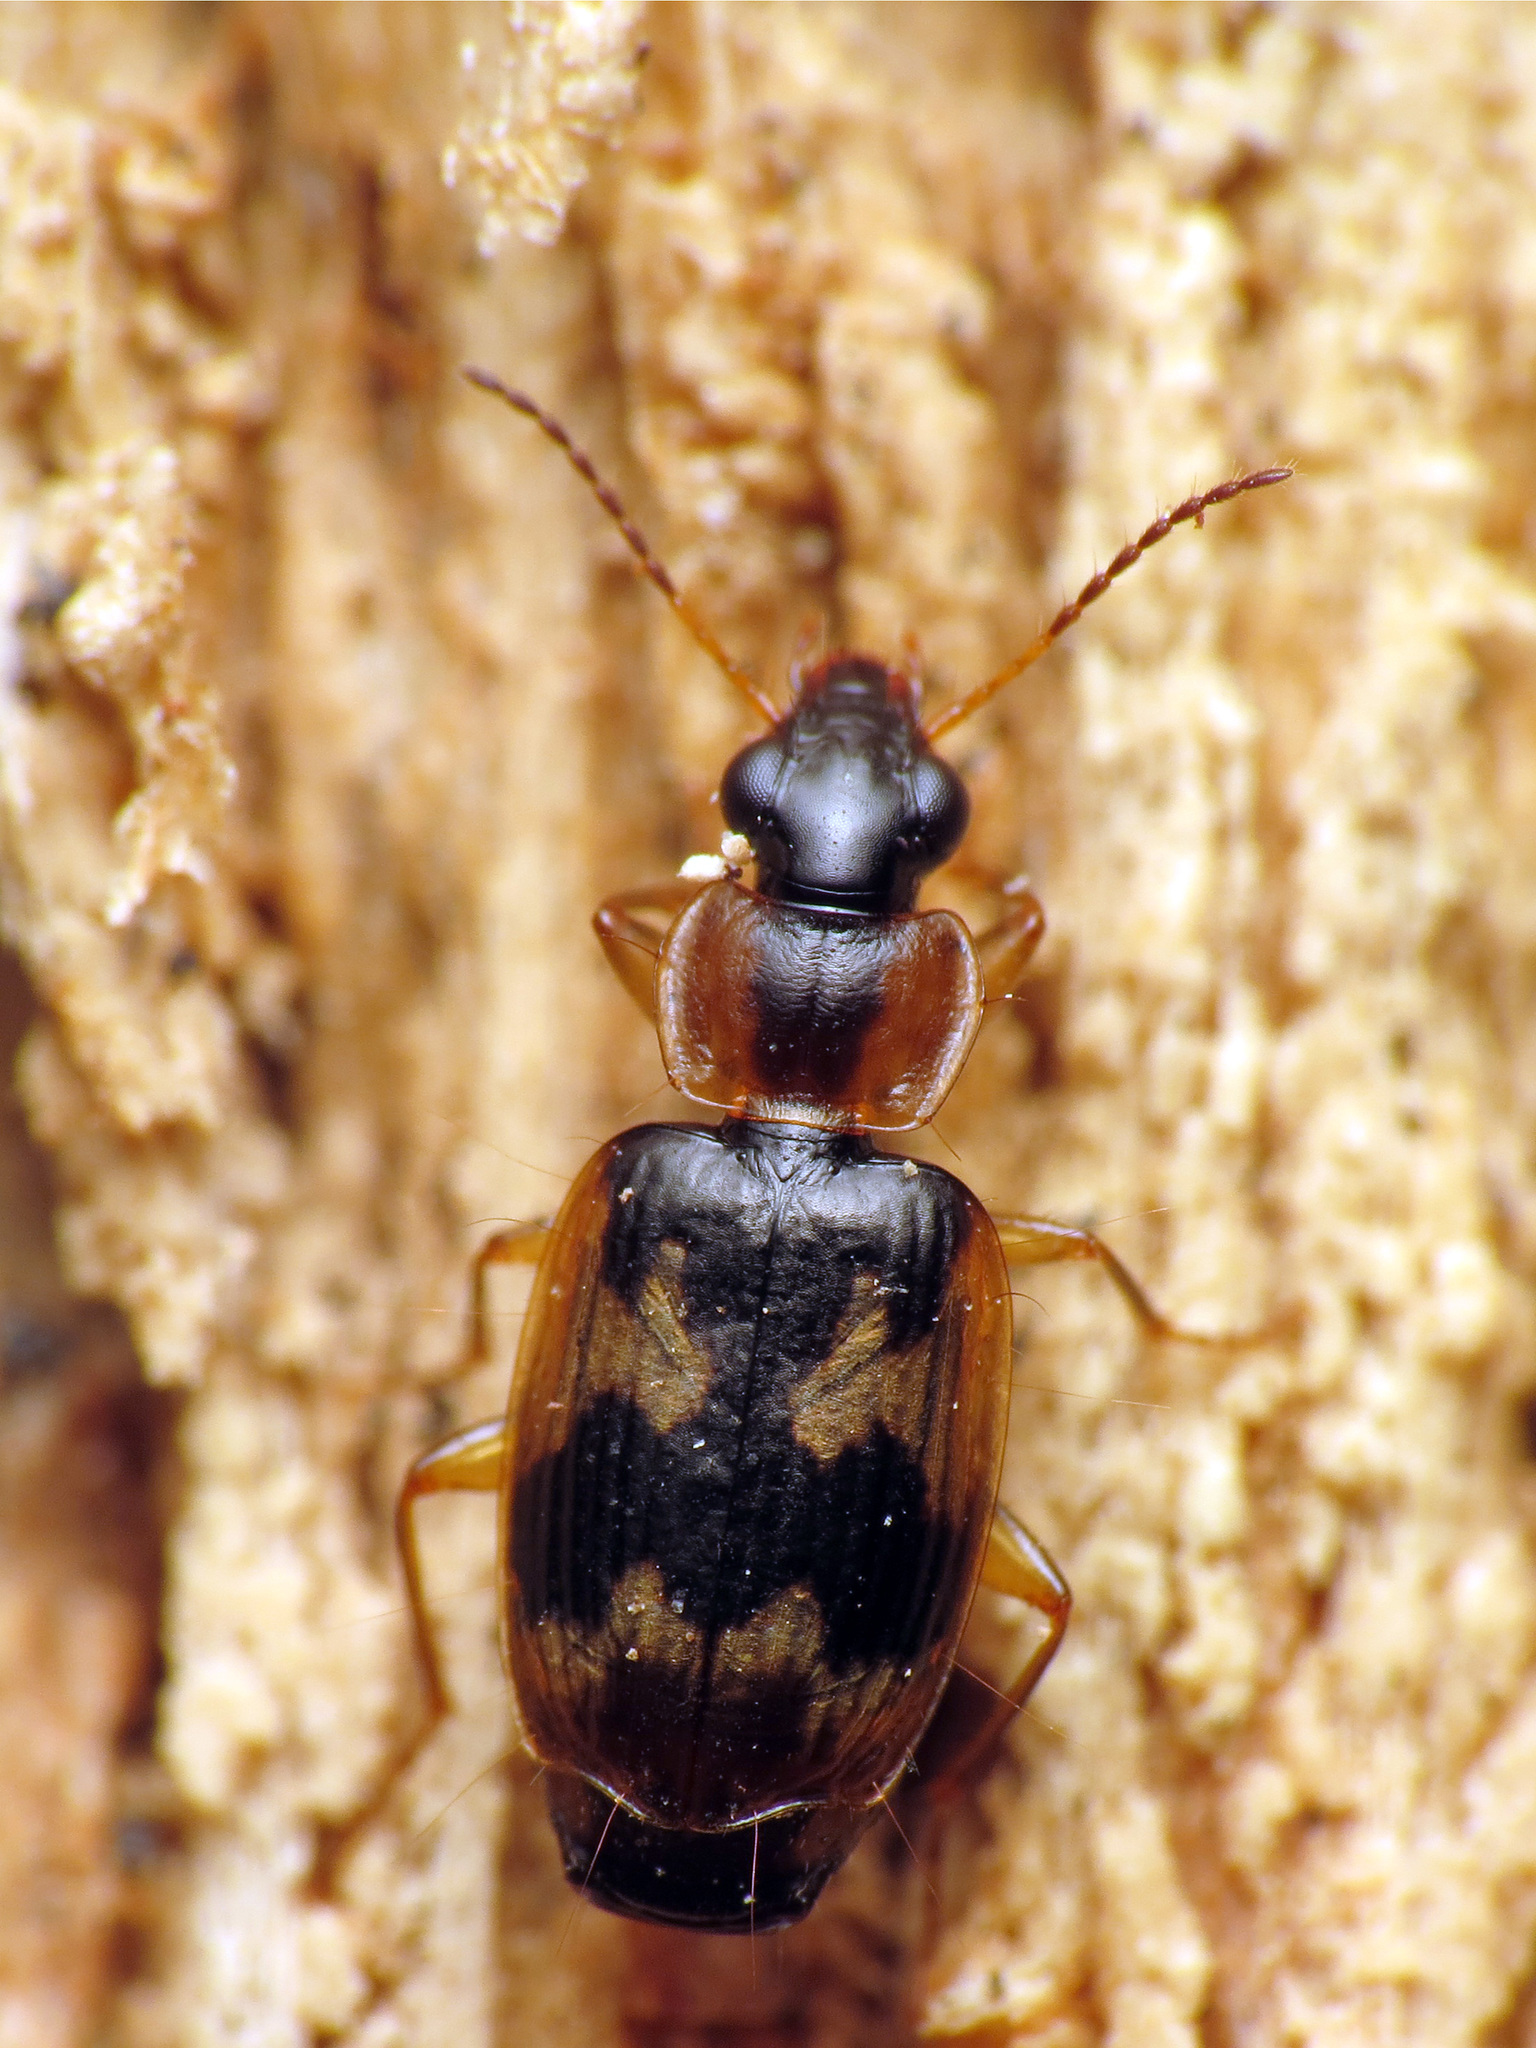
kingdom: Animalia
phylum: Arthropoda
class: Insecta
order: Coleoptera
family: Carabidae
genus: Phloeoxena
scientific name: Phloeoxena signata
